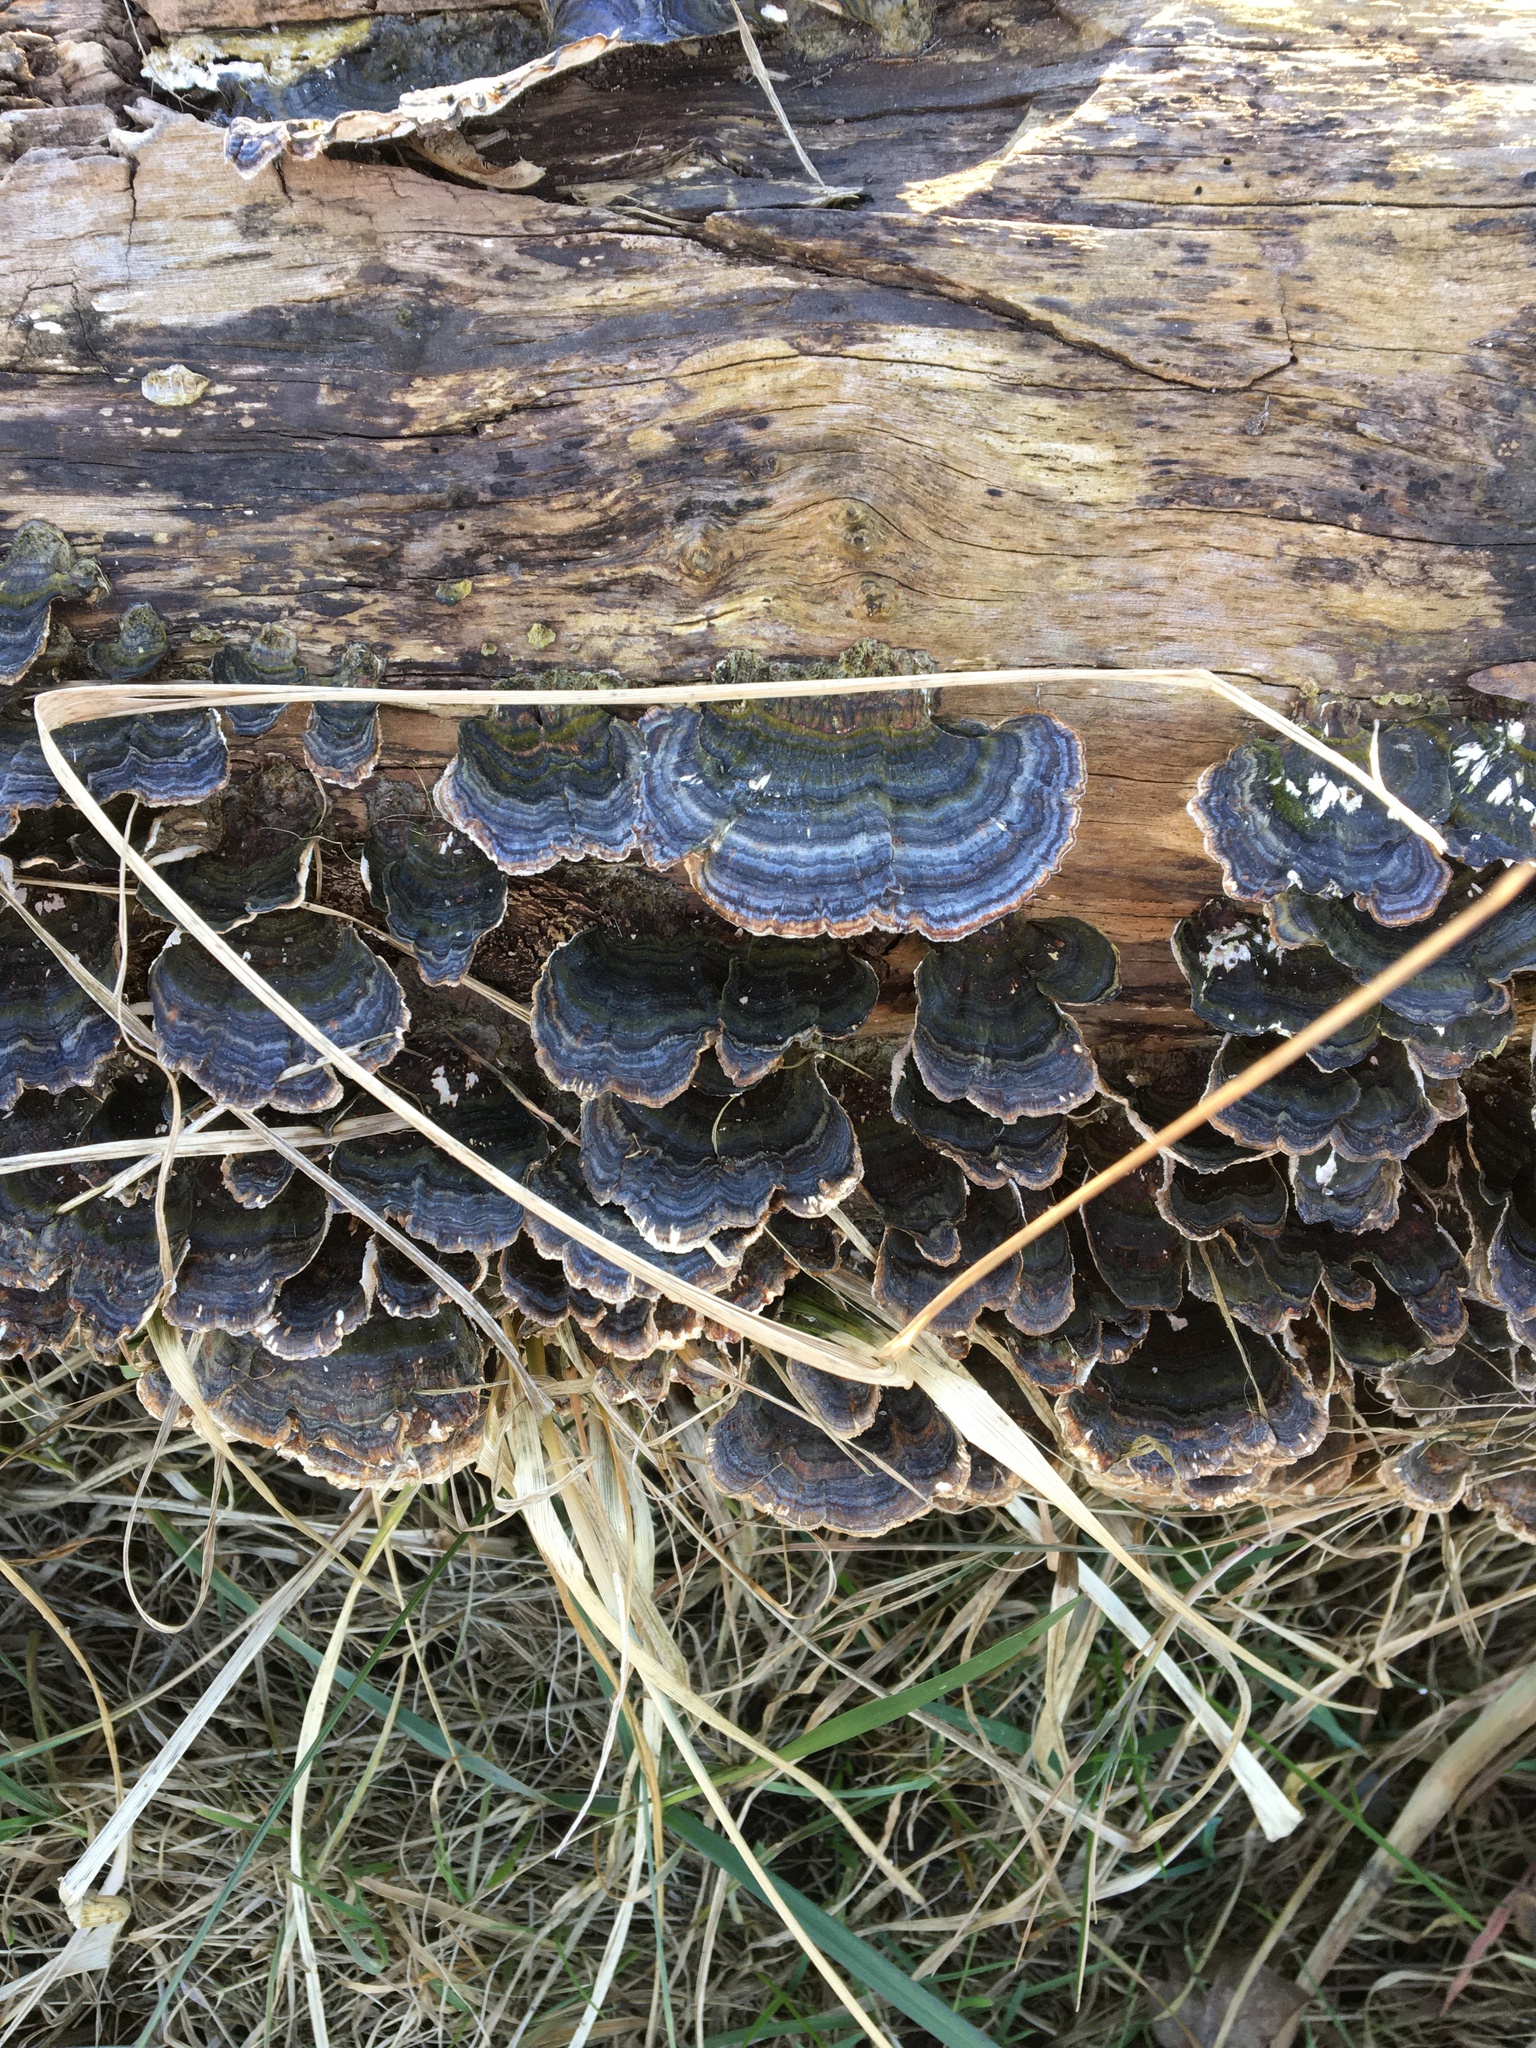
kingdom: Fungi
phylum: Basidiomycota
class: Agaricomycetes
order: Polyporales
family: Polyporaceae
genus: Trametes
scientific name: Trametes versicolor
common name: Turkeytail
